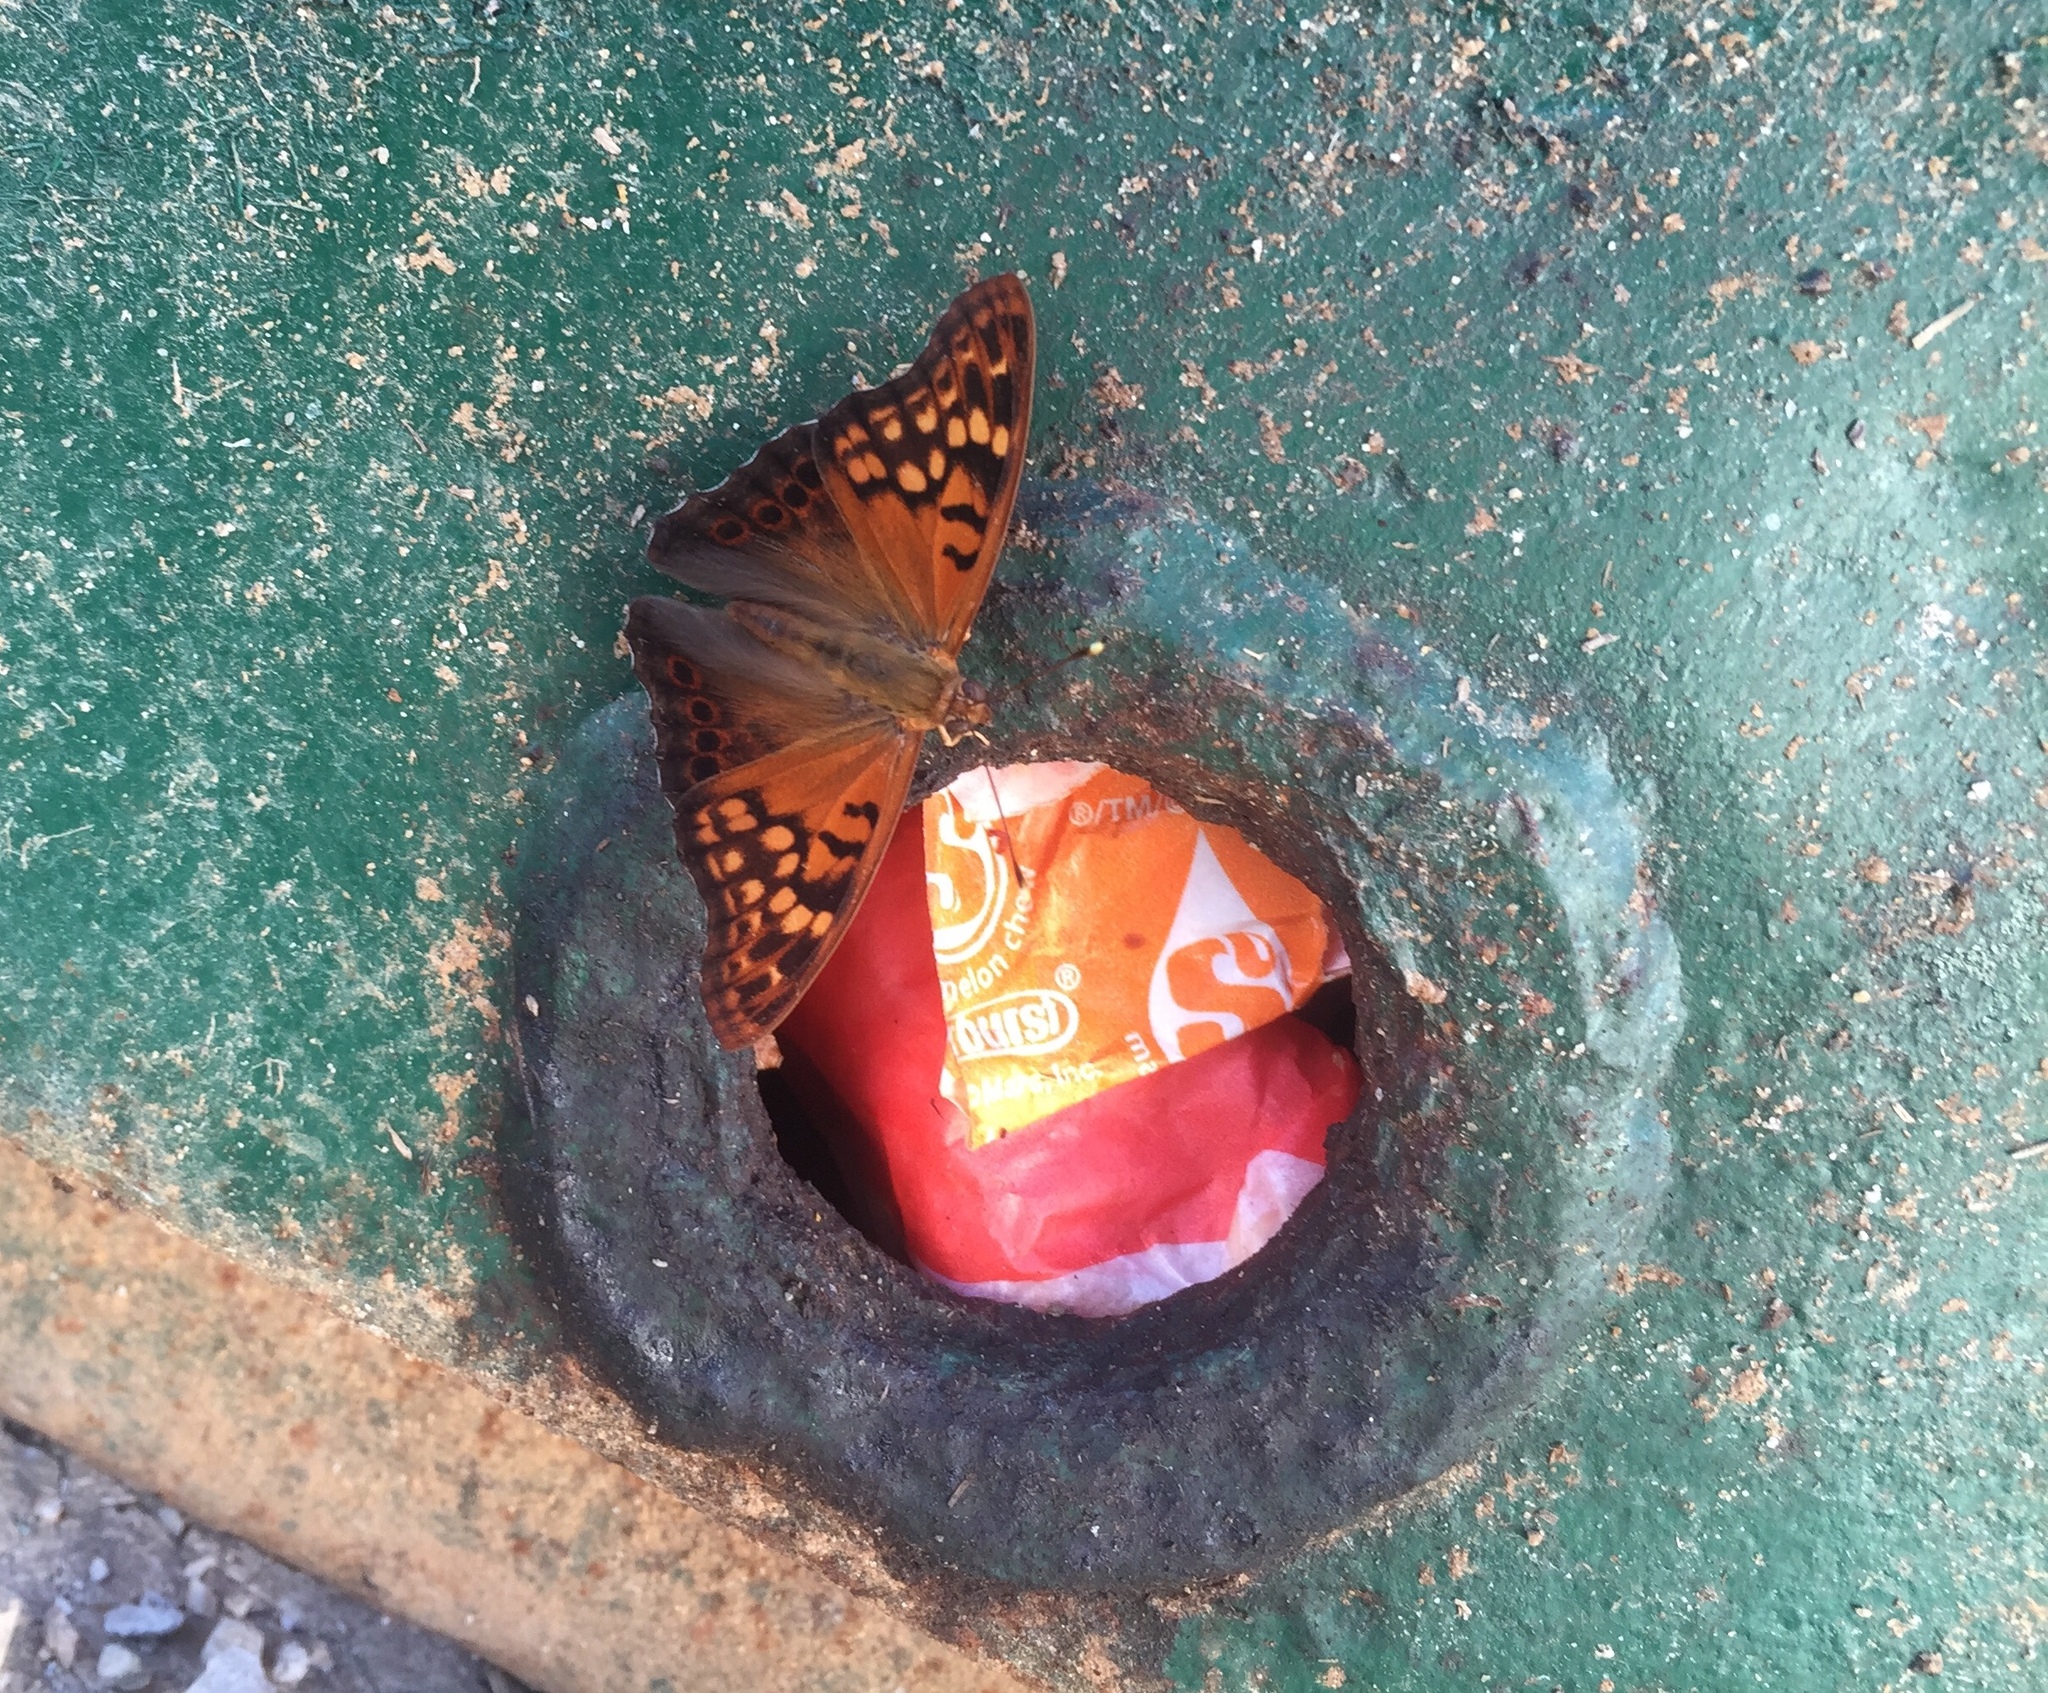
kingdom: Animalia
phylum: Arthropoda
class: Insecta
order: Lepidoptera
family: Nymphalidae
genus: Asterocampa
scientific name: Asterocampa clyton
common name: Tawny emperor
